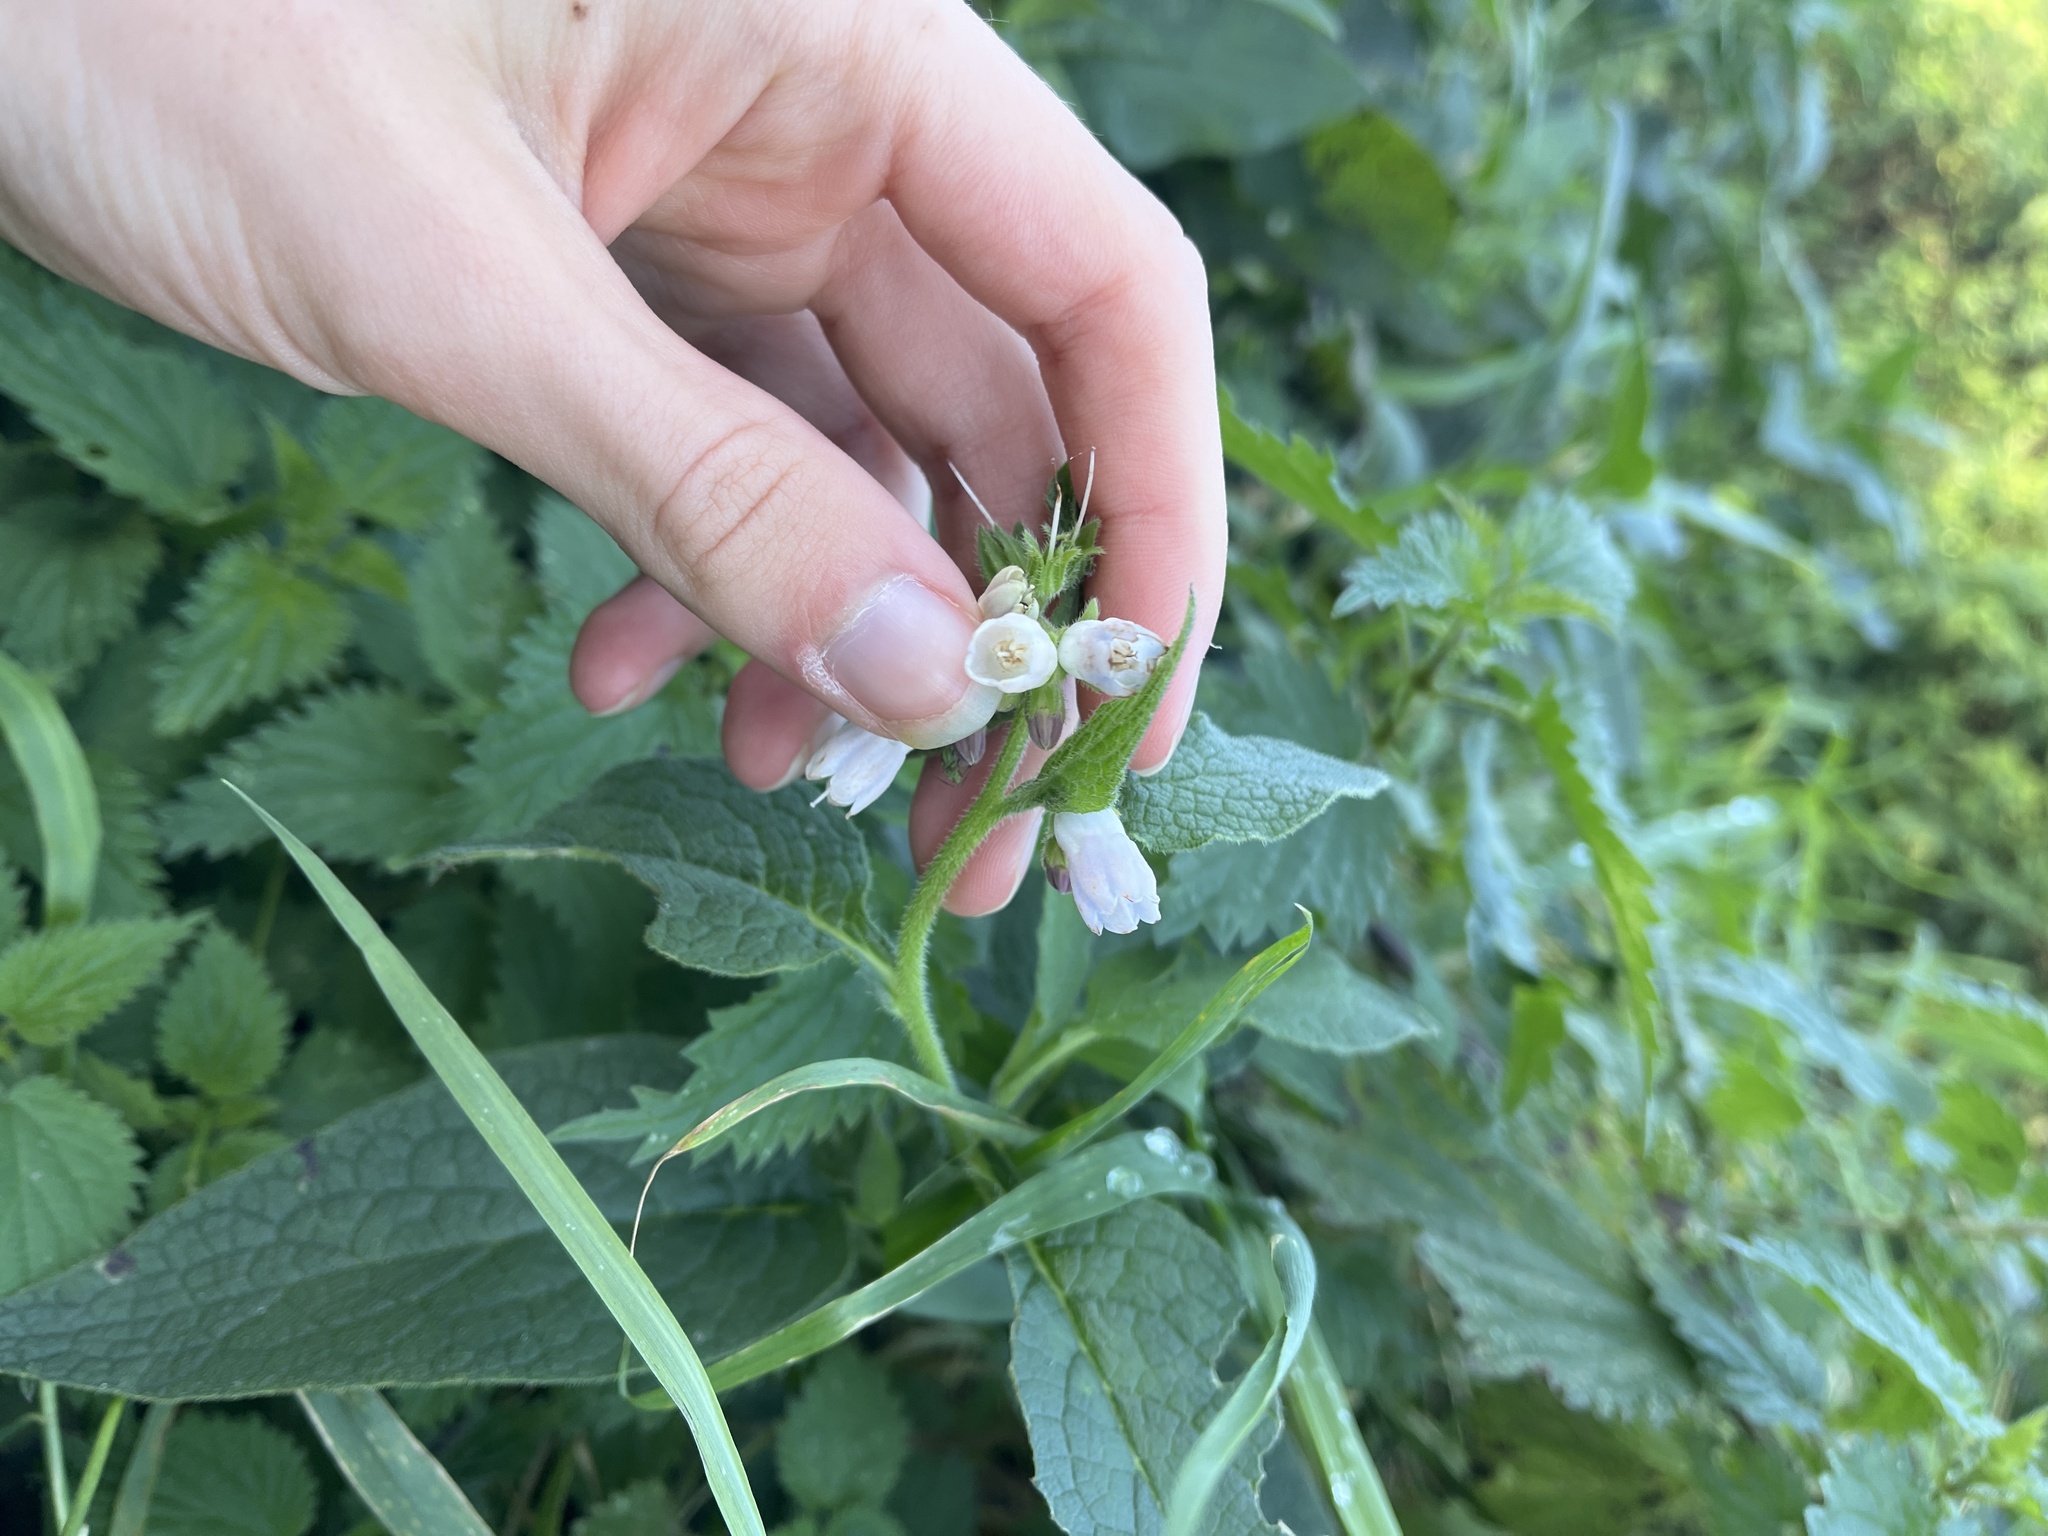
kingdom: Plantae
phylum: Tracheophyta
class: Magnoliopsida
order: Boraginales
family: Boraginaceae
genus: Symphytum
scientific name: Symphytum uplandicum
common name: Russian comfrey
